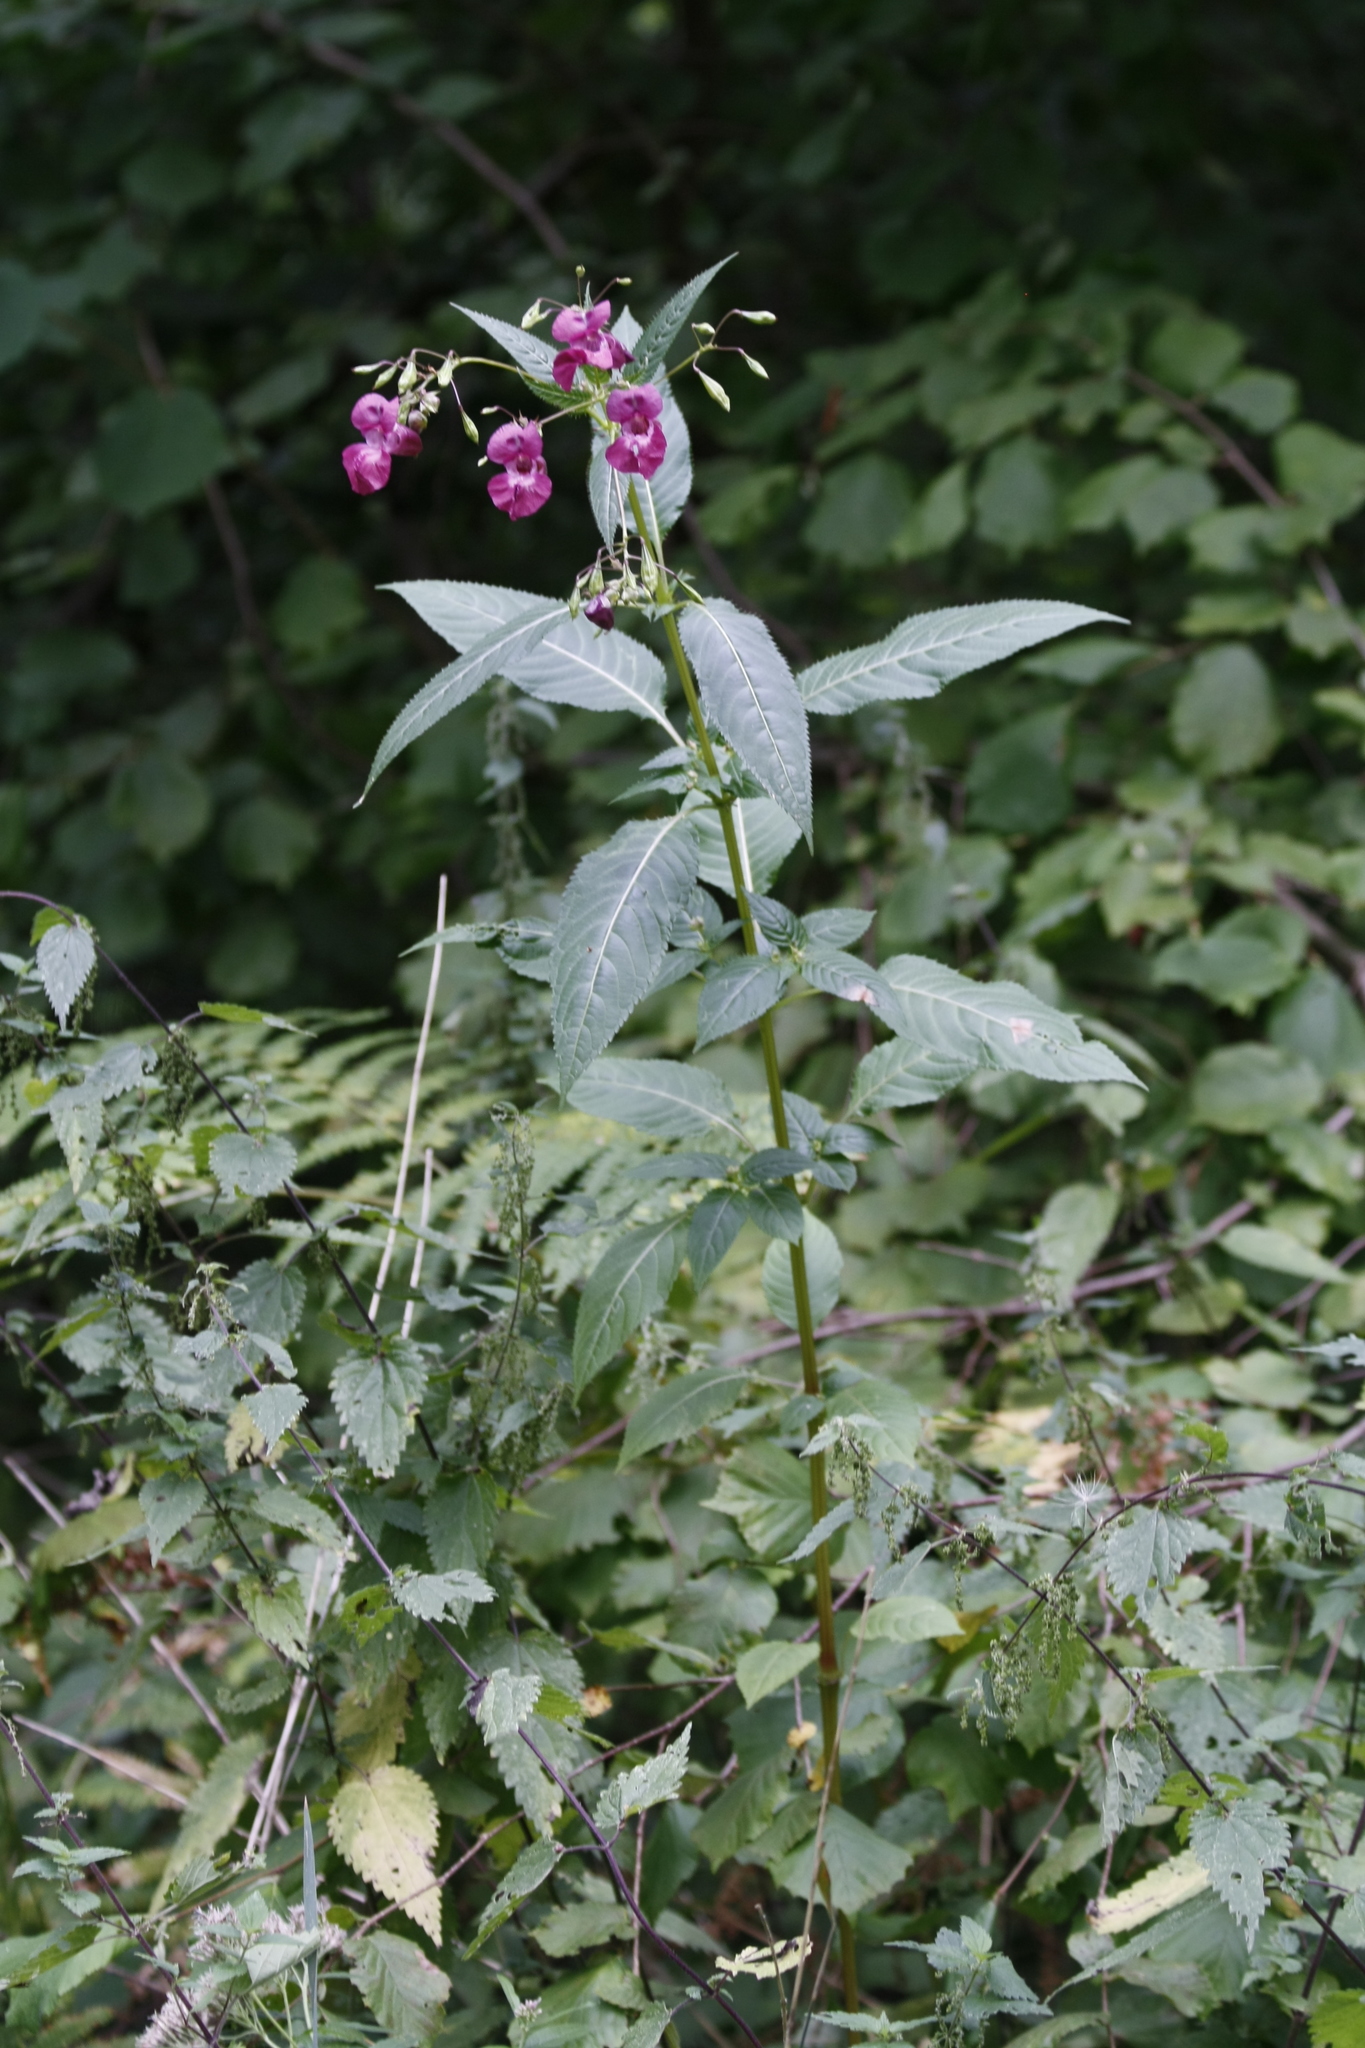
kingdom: Plantae
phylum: Tracheophyta
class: Magnoliopsida
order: Ericales
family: Balsaminaceae
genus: Impatiens
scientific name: Impatiens glandulifera
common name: Himalayan balsam
